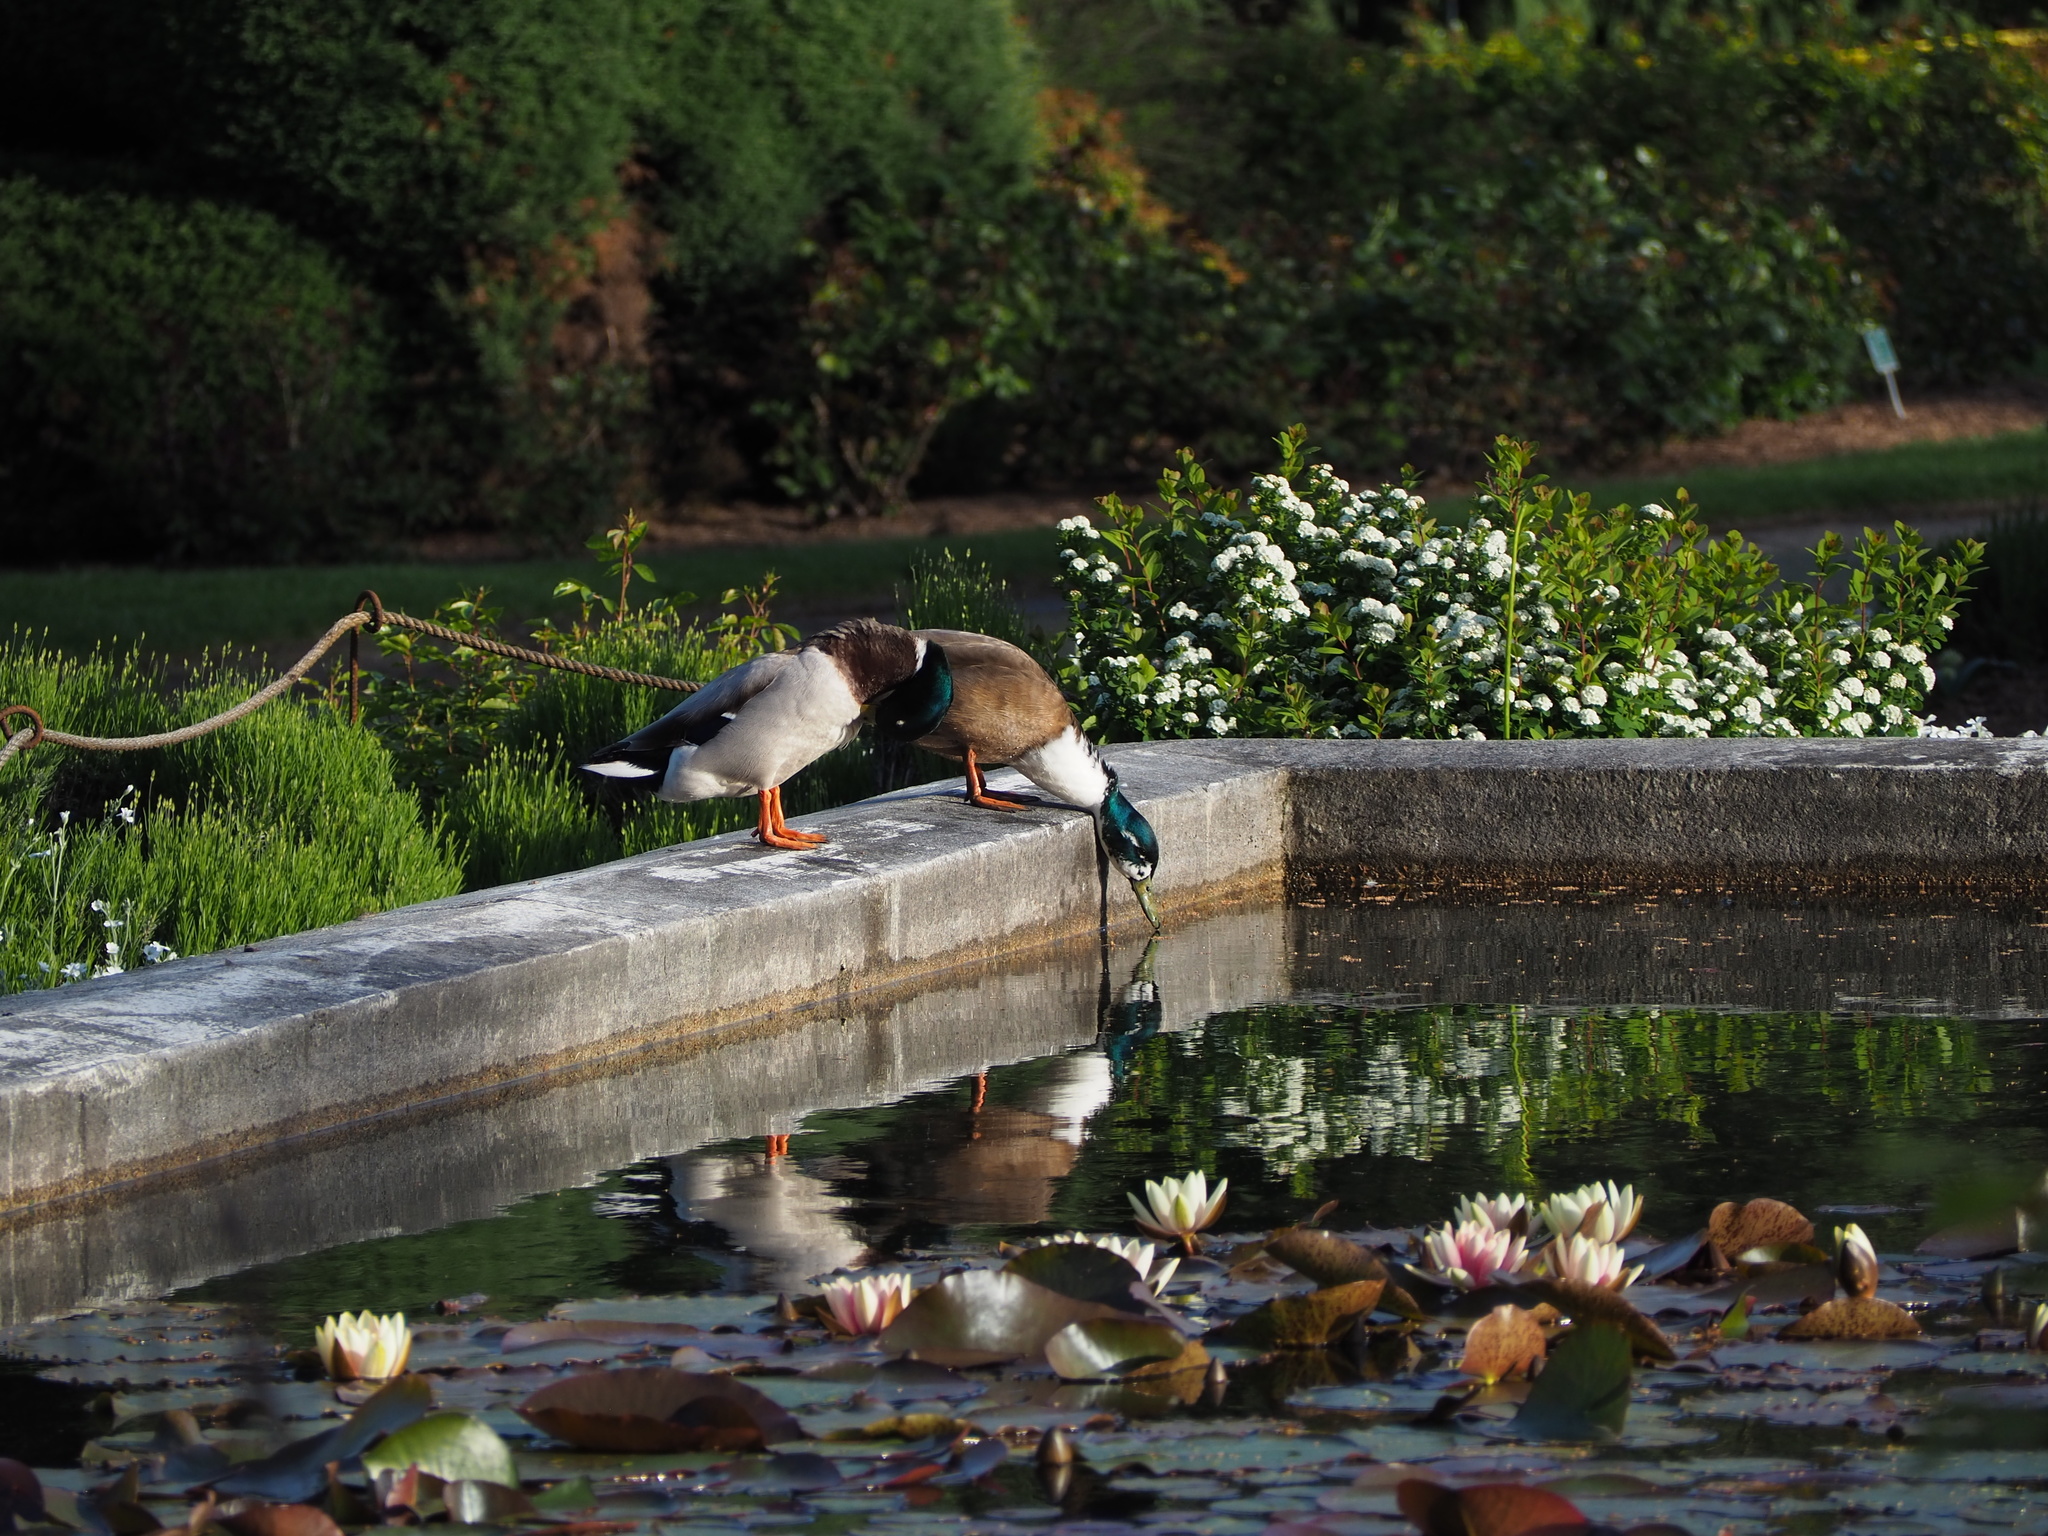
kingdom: Animalia
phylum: Chordata
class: Aves
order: Anseriformes
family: Anatidae
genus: Anas
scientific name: Anas platyrhynchos
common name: Mallard
